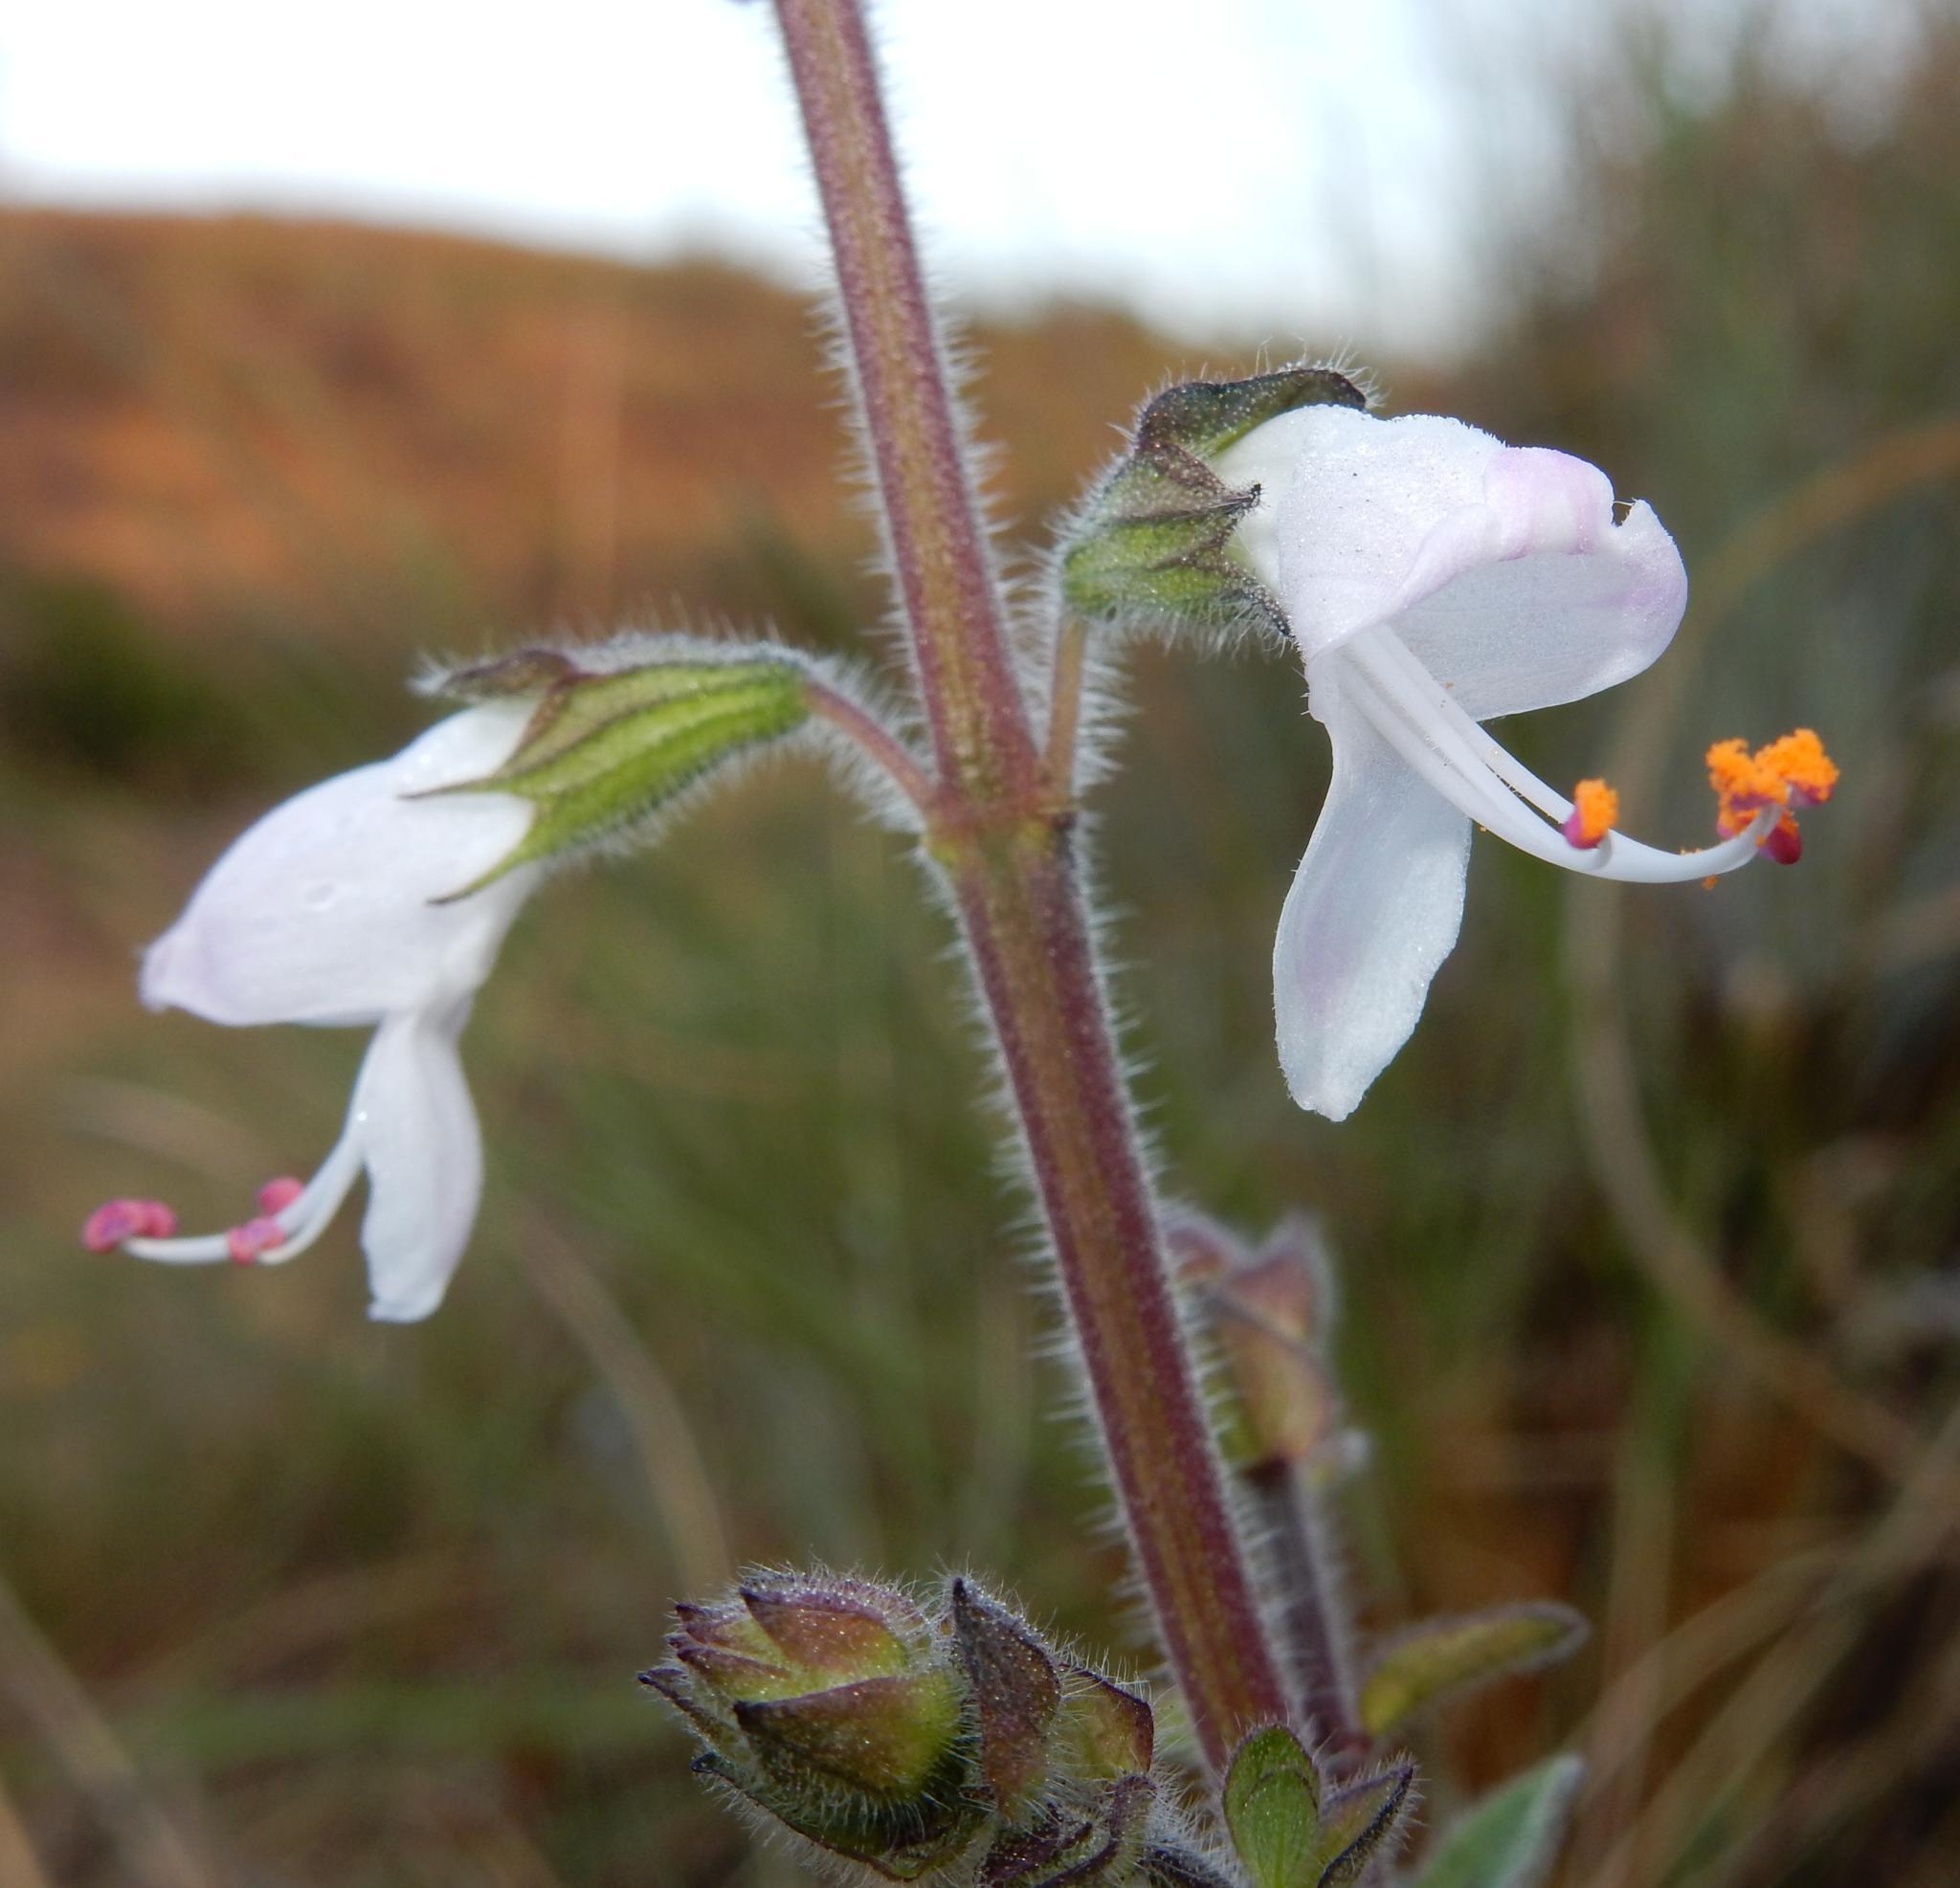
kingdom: Plantae
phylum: Tracheophyta
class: Magnoliopsida
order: Lamiales
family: Lamiaceae
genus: Syncolostemon
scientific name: Syncolostemon bolusii
